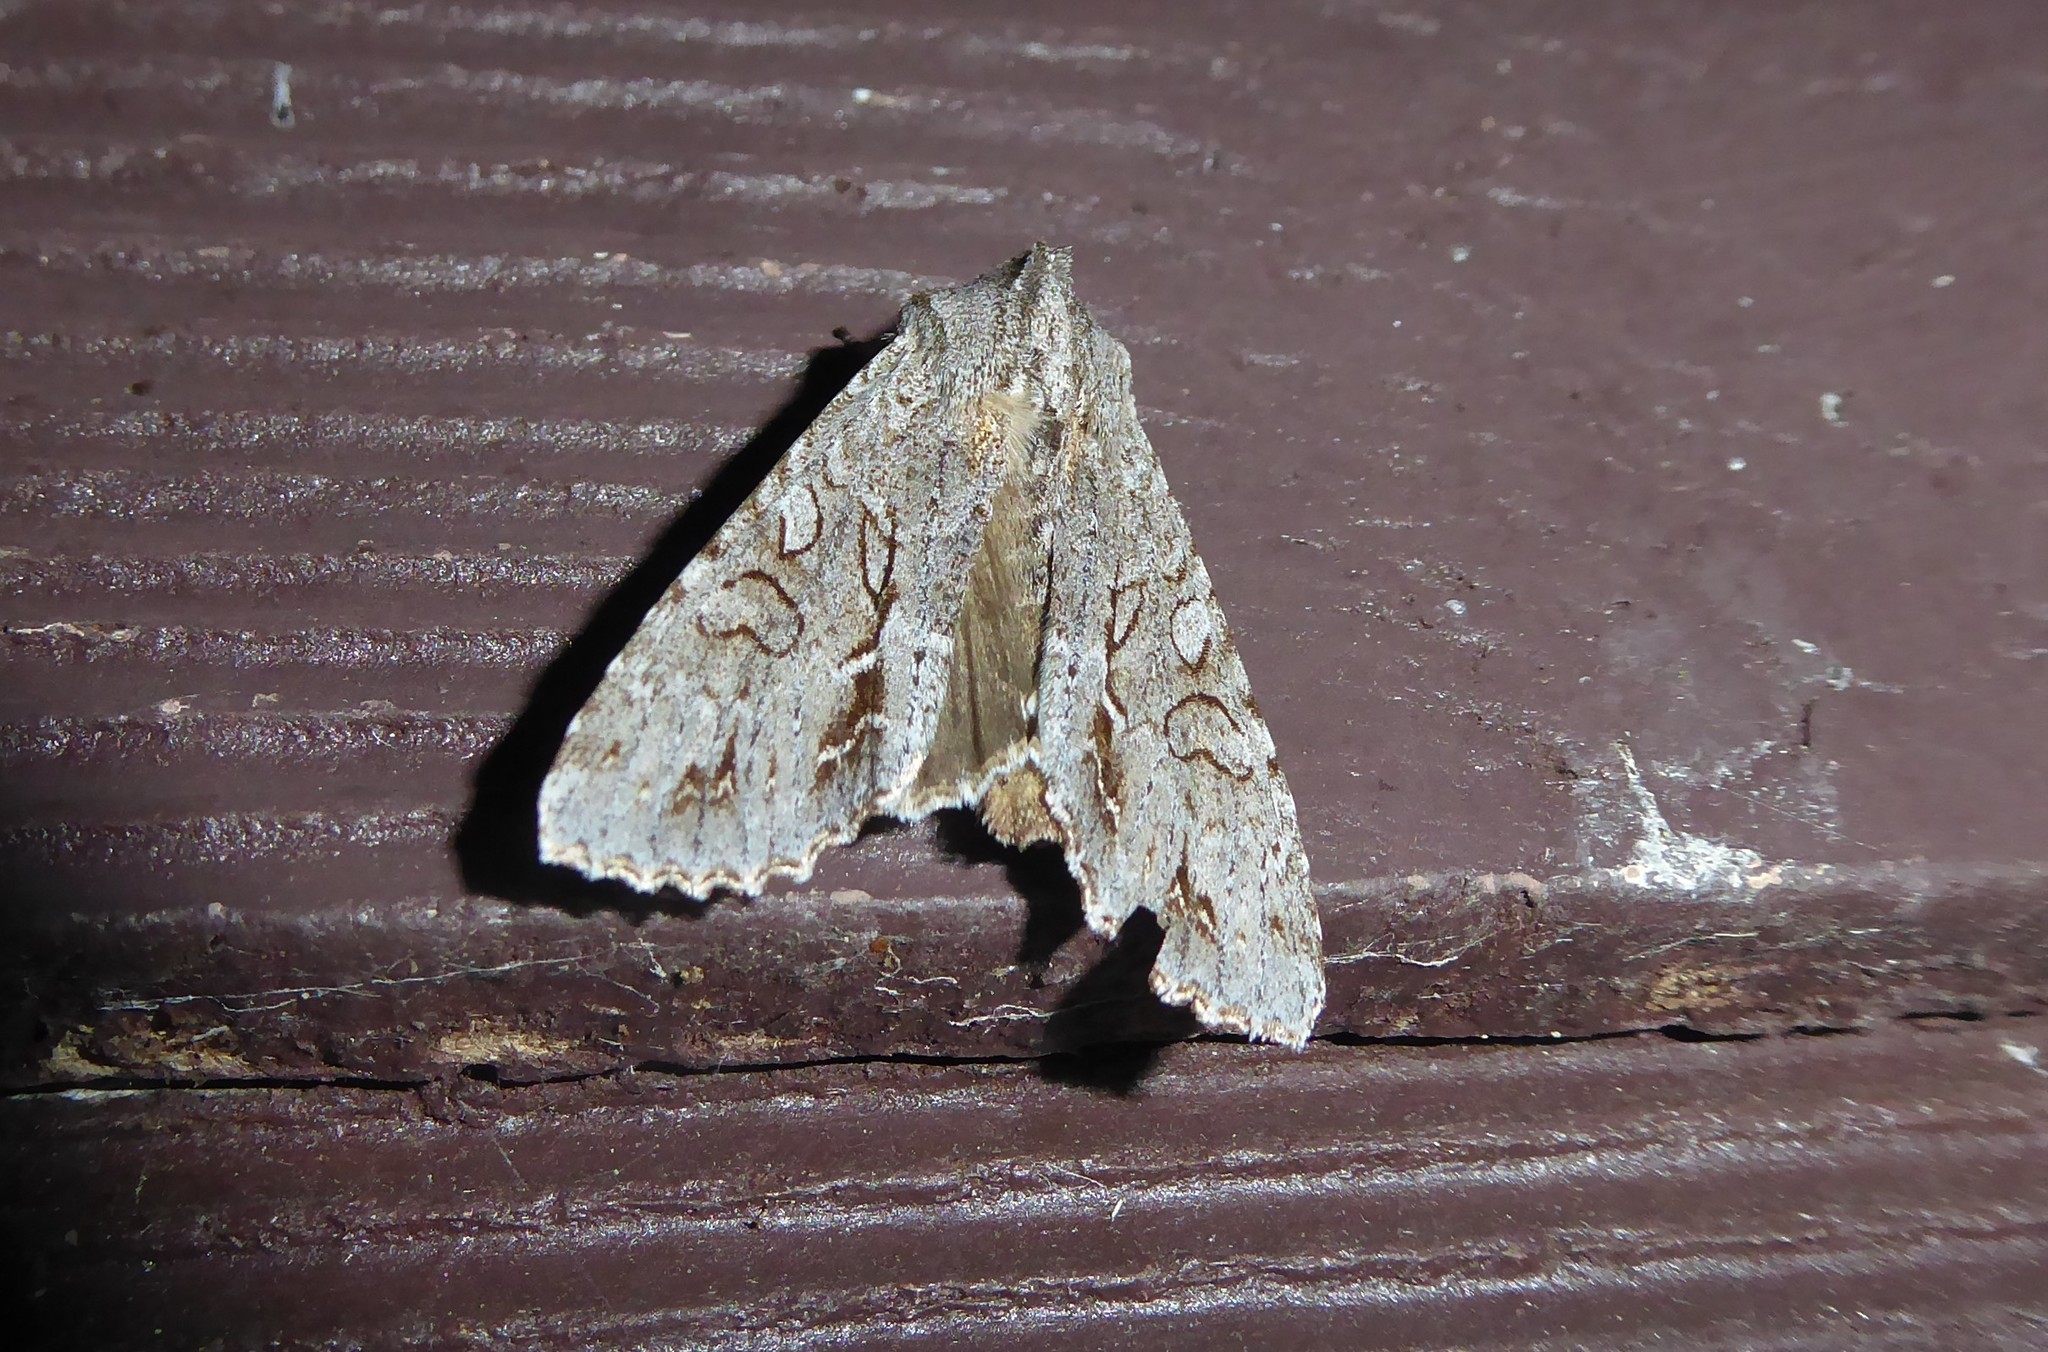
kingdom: Animalia
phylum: Arthropoda
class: Insecta
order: Lepidoptera
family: Noctuidae
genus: Ichneutica
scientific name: Ichneutica
